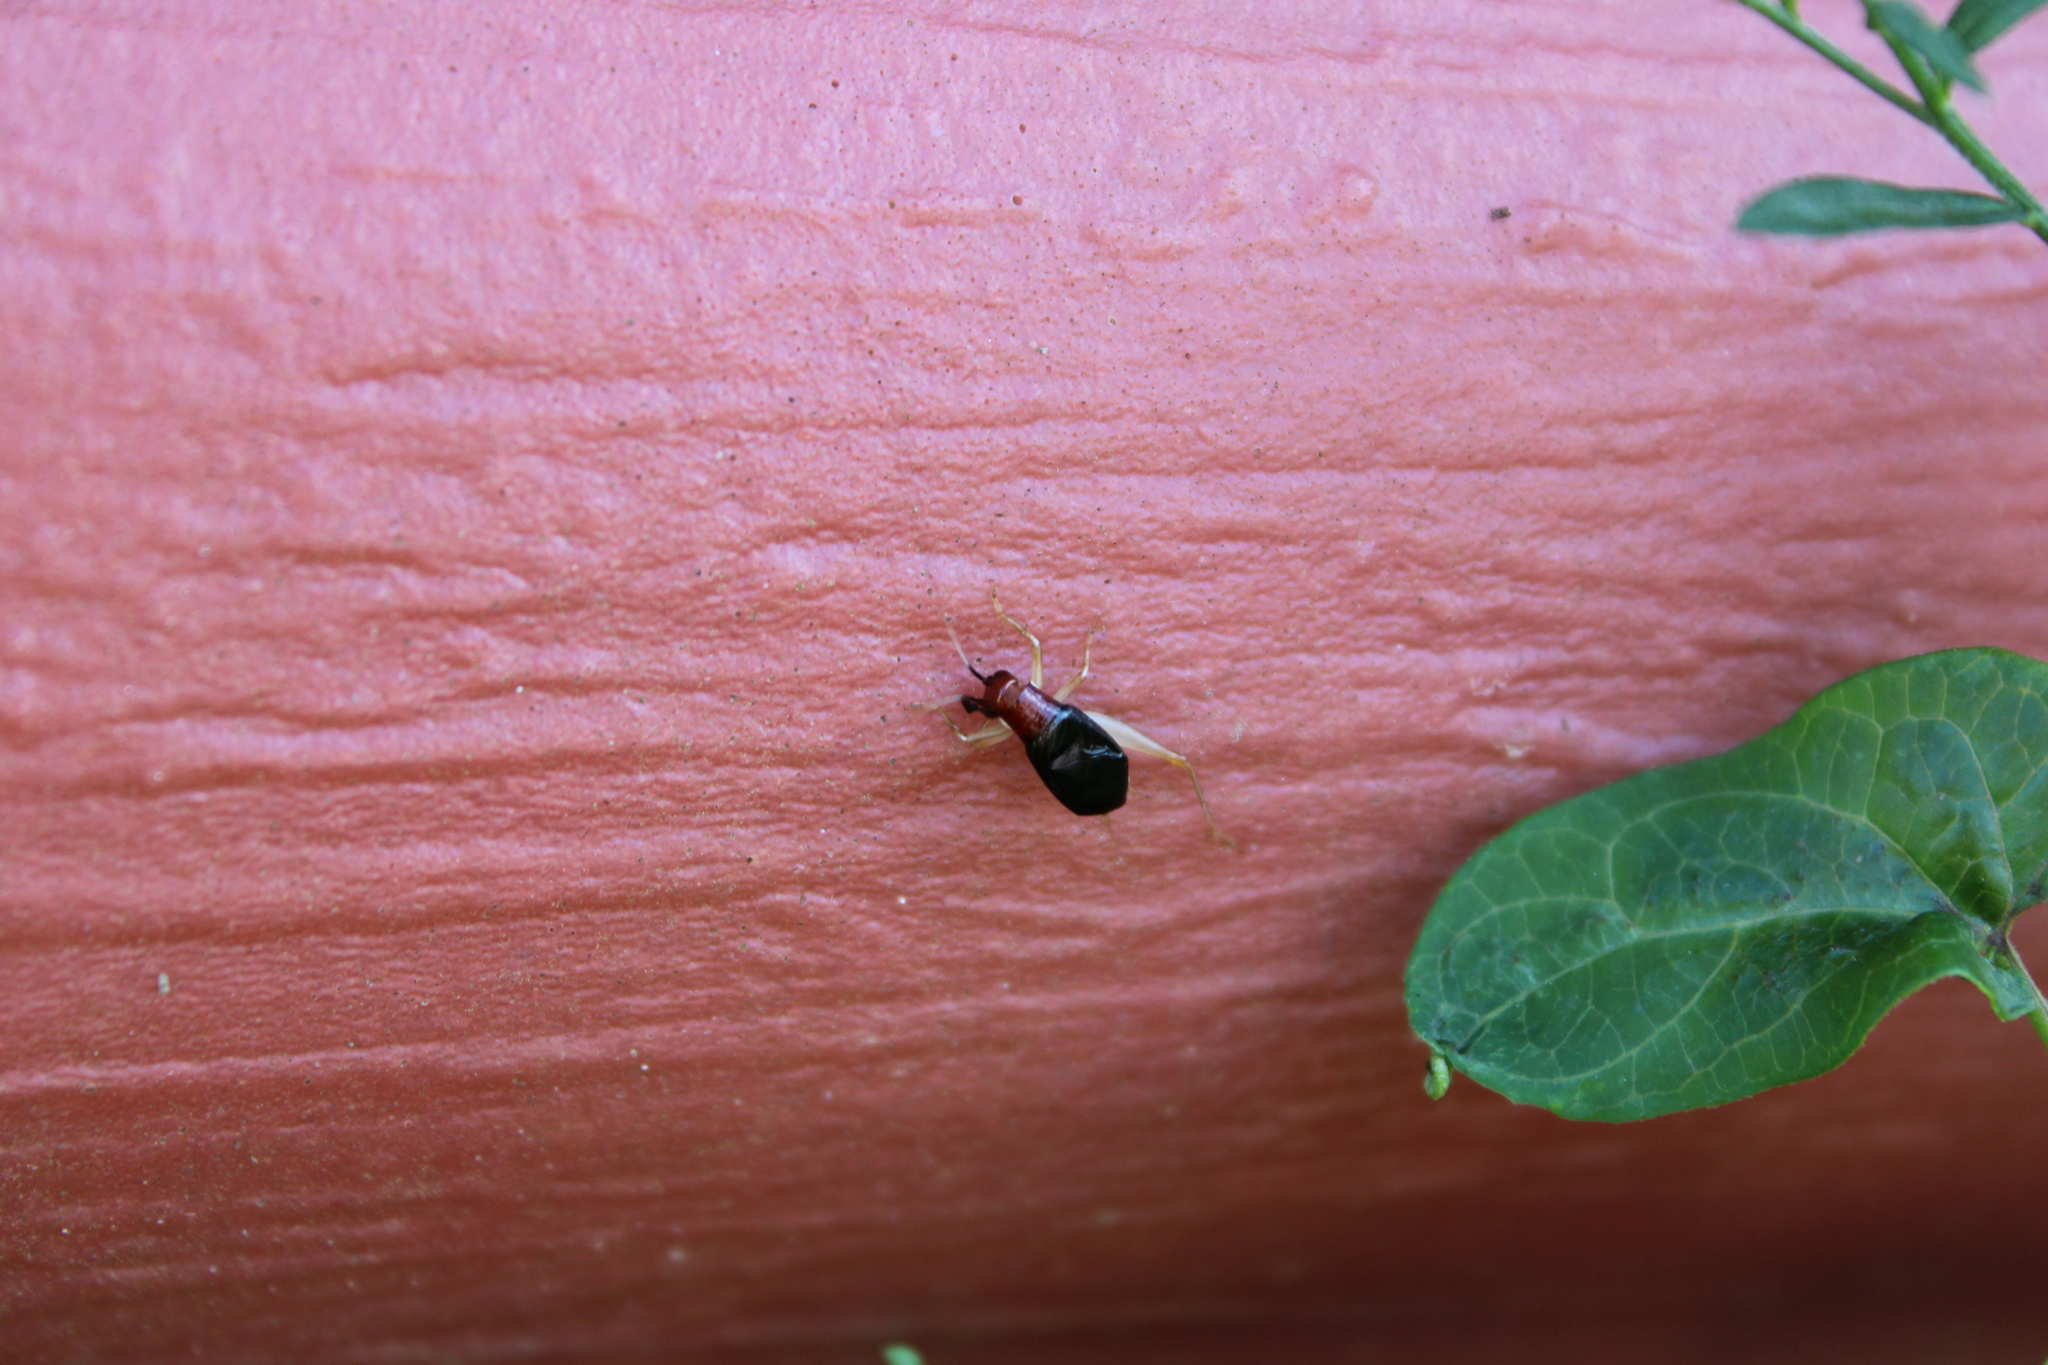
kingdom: Animalia
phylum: Arthropoda
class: Insecta
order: Orthoptera
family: Trigonidiidae
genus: Phyllopalpus
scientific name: Phyllopalpus pulchellus
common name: Handsome trig
